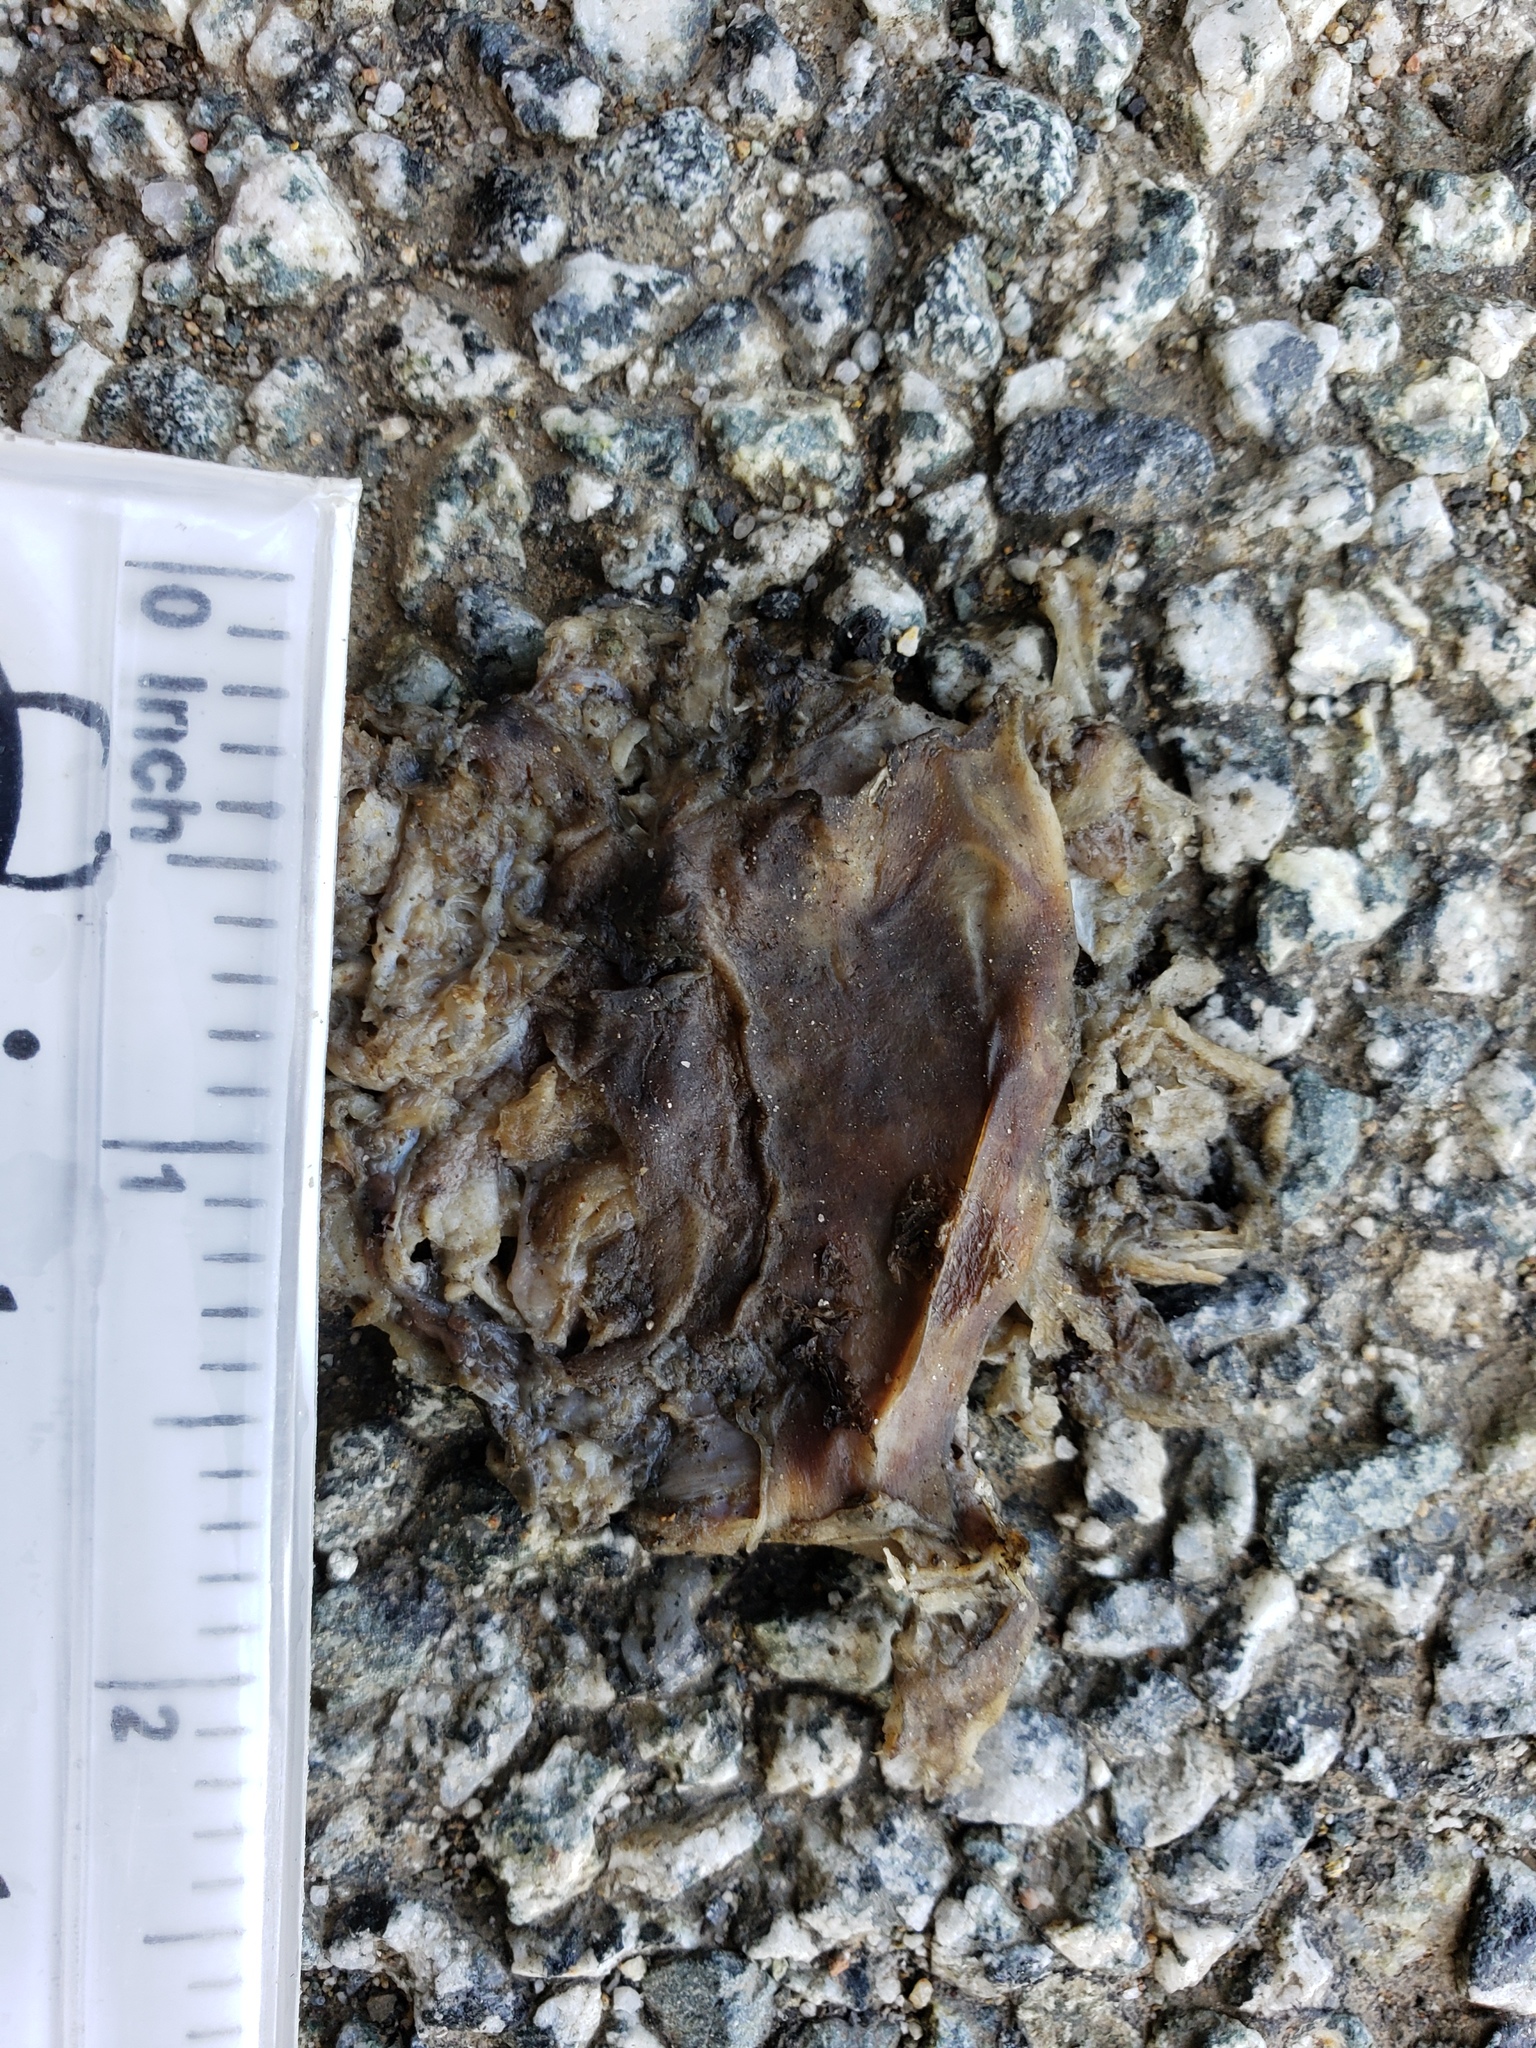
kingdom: Animalia
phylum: Chordata
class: Amphibia
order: Caudata
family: Salamandridae
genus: Taricha
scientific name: Taricha
